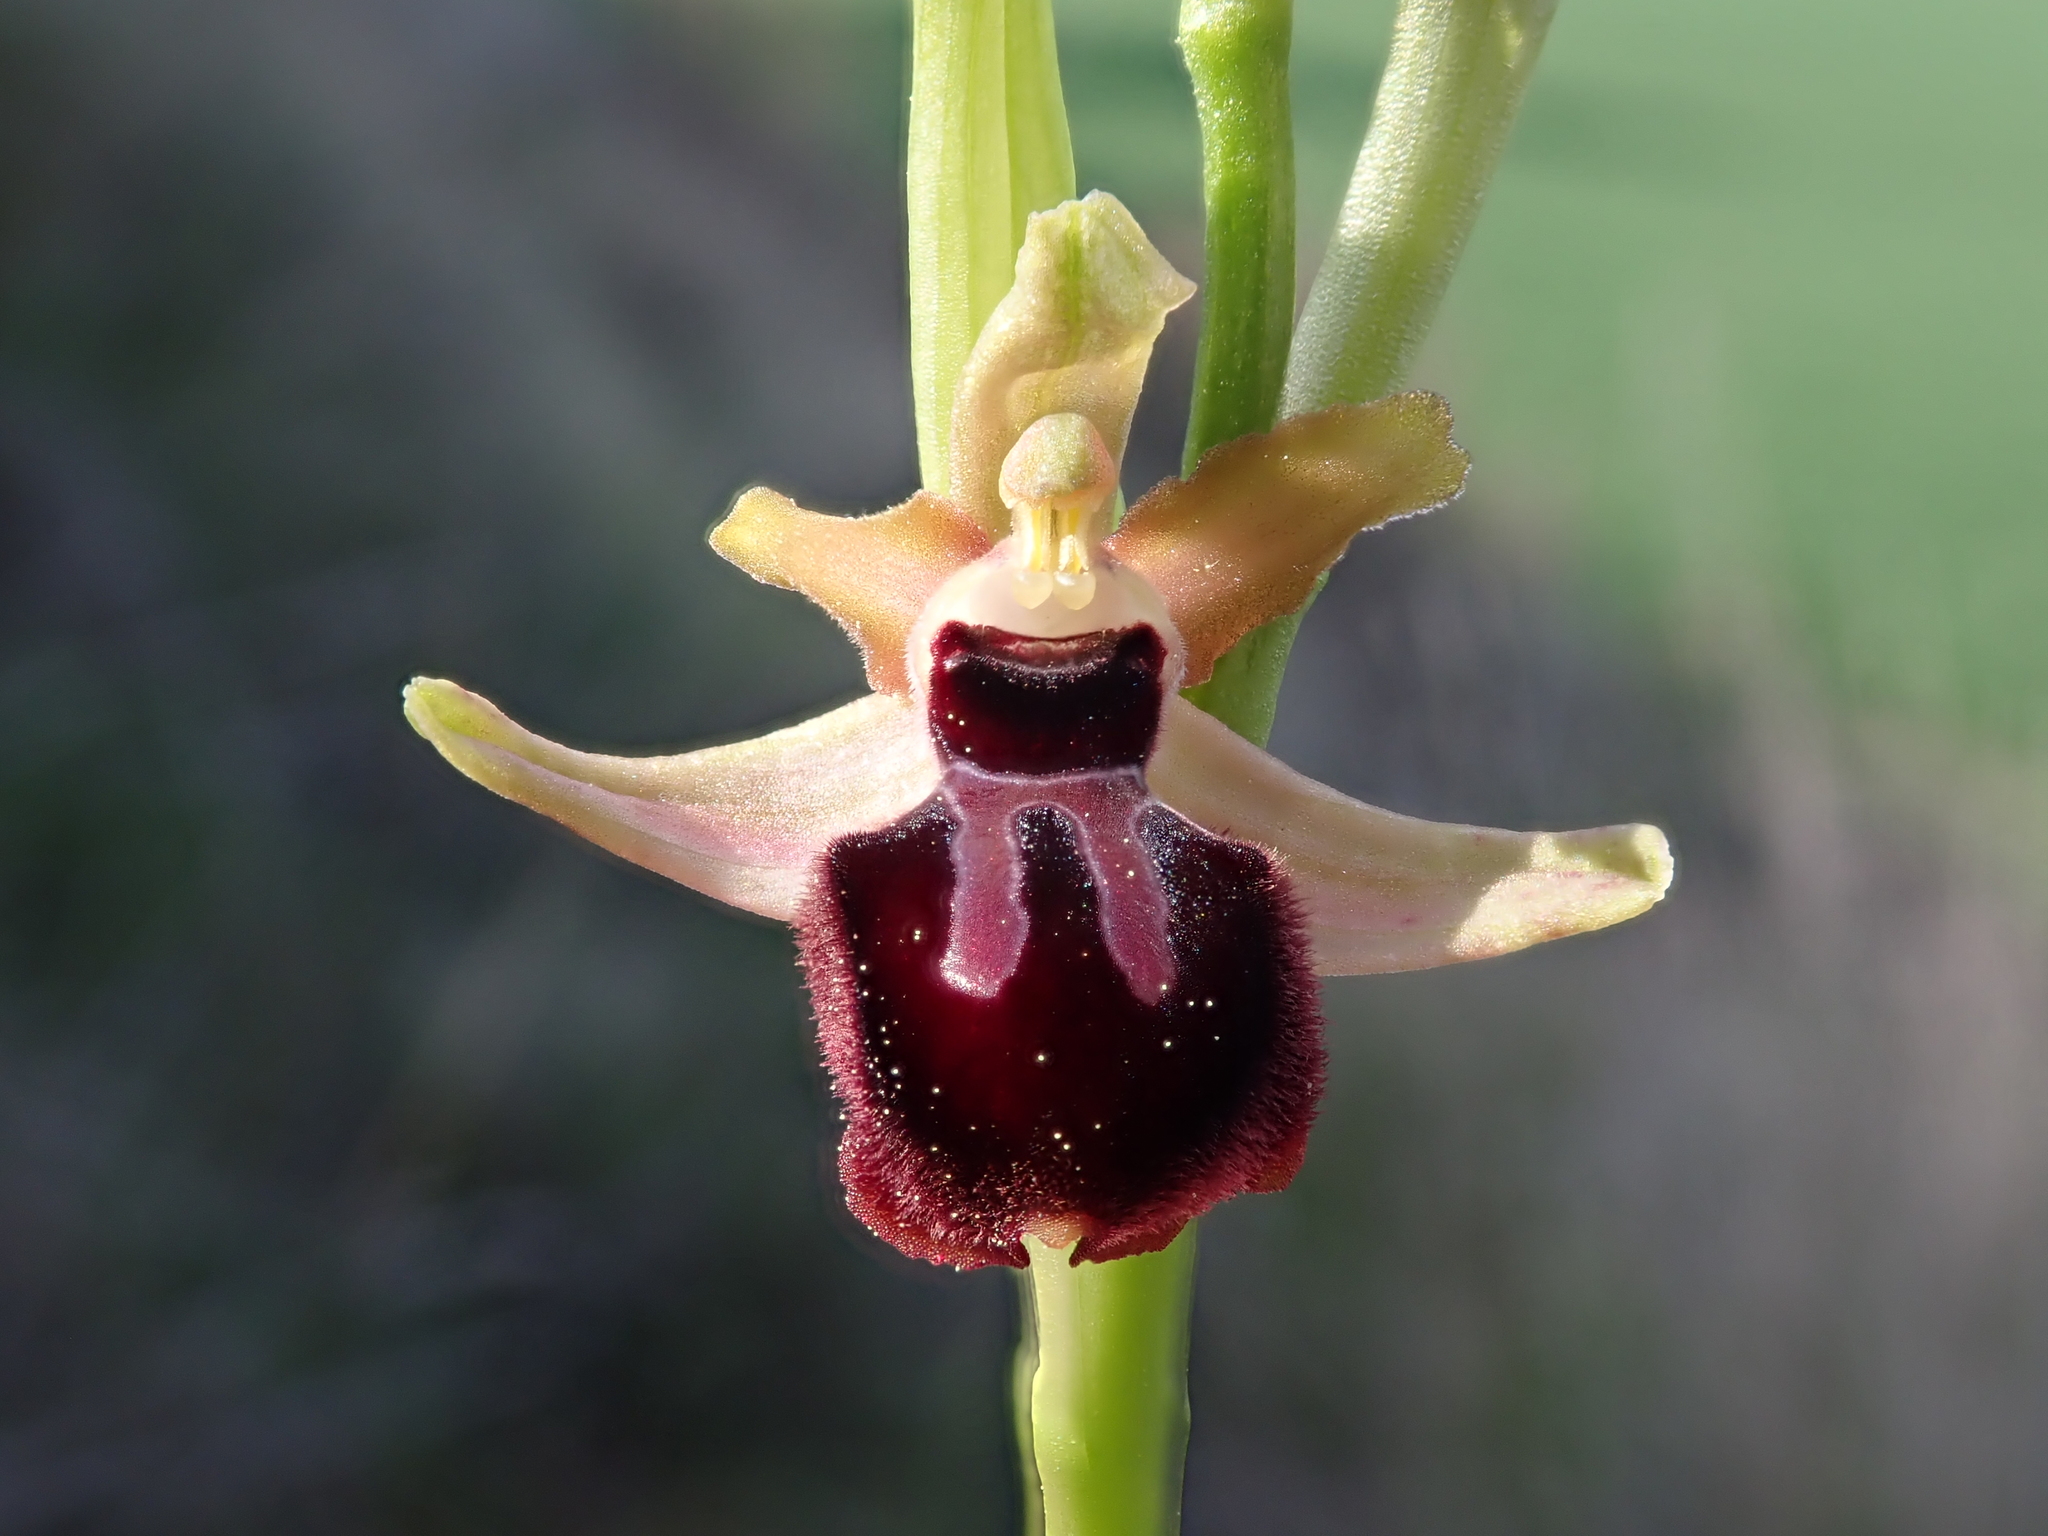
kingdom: Plantae
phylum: Tracheophyta
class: Liliopsida
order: Asparagales
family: Orchidaceae
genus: Ophrys
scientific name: Ophrys sphegodes
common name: Early spider-orchid
